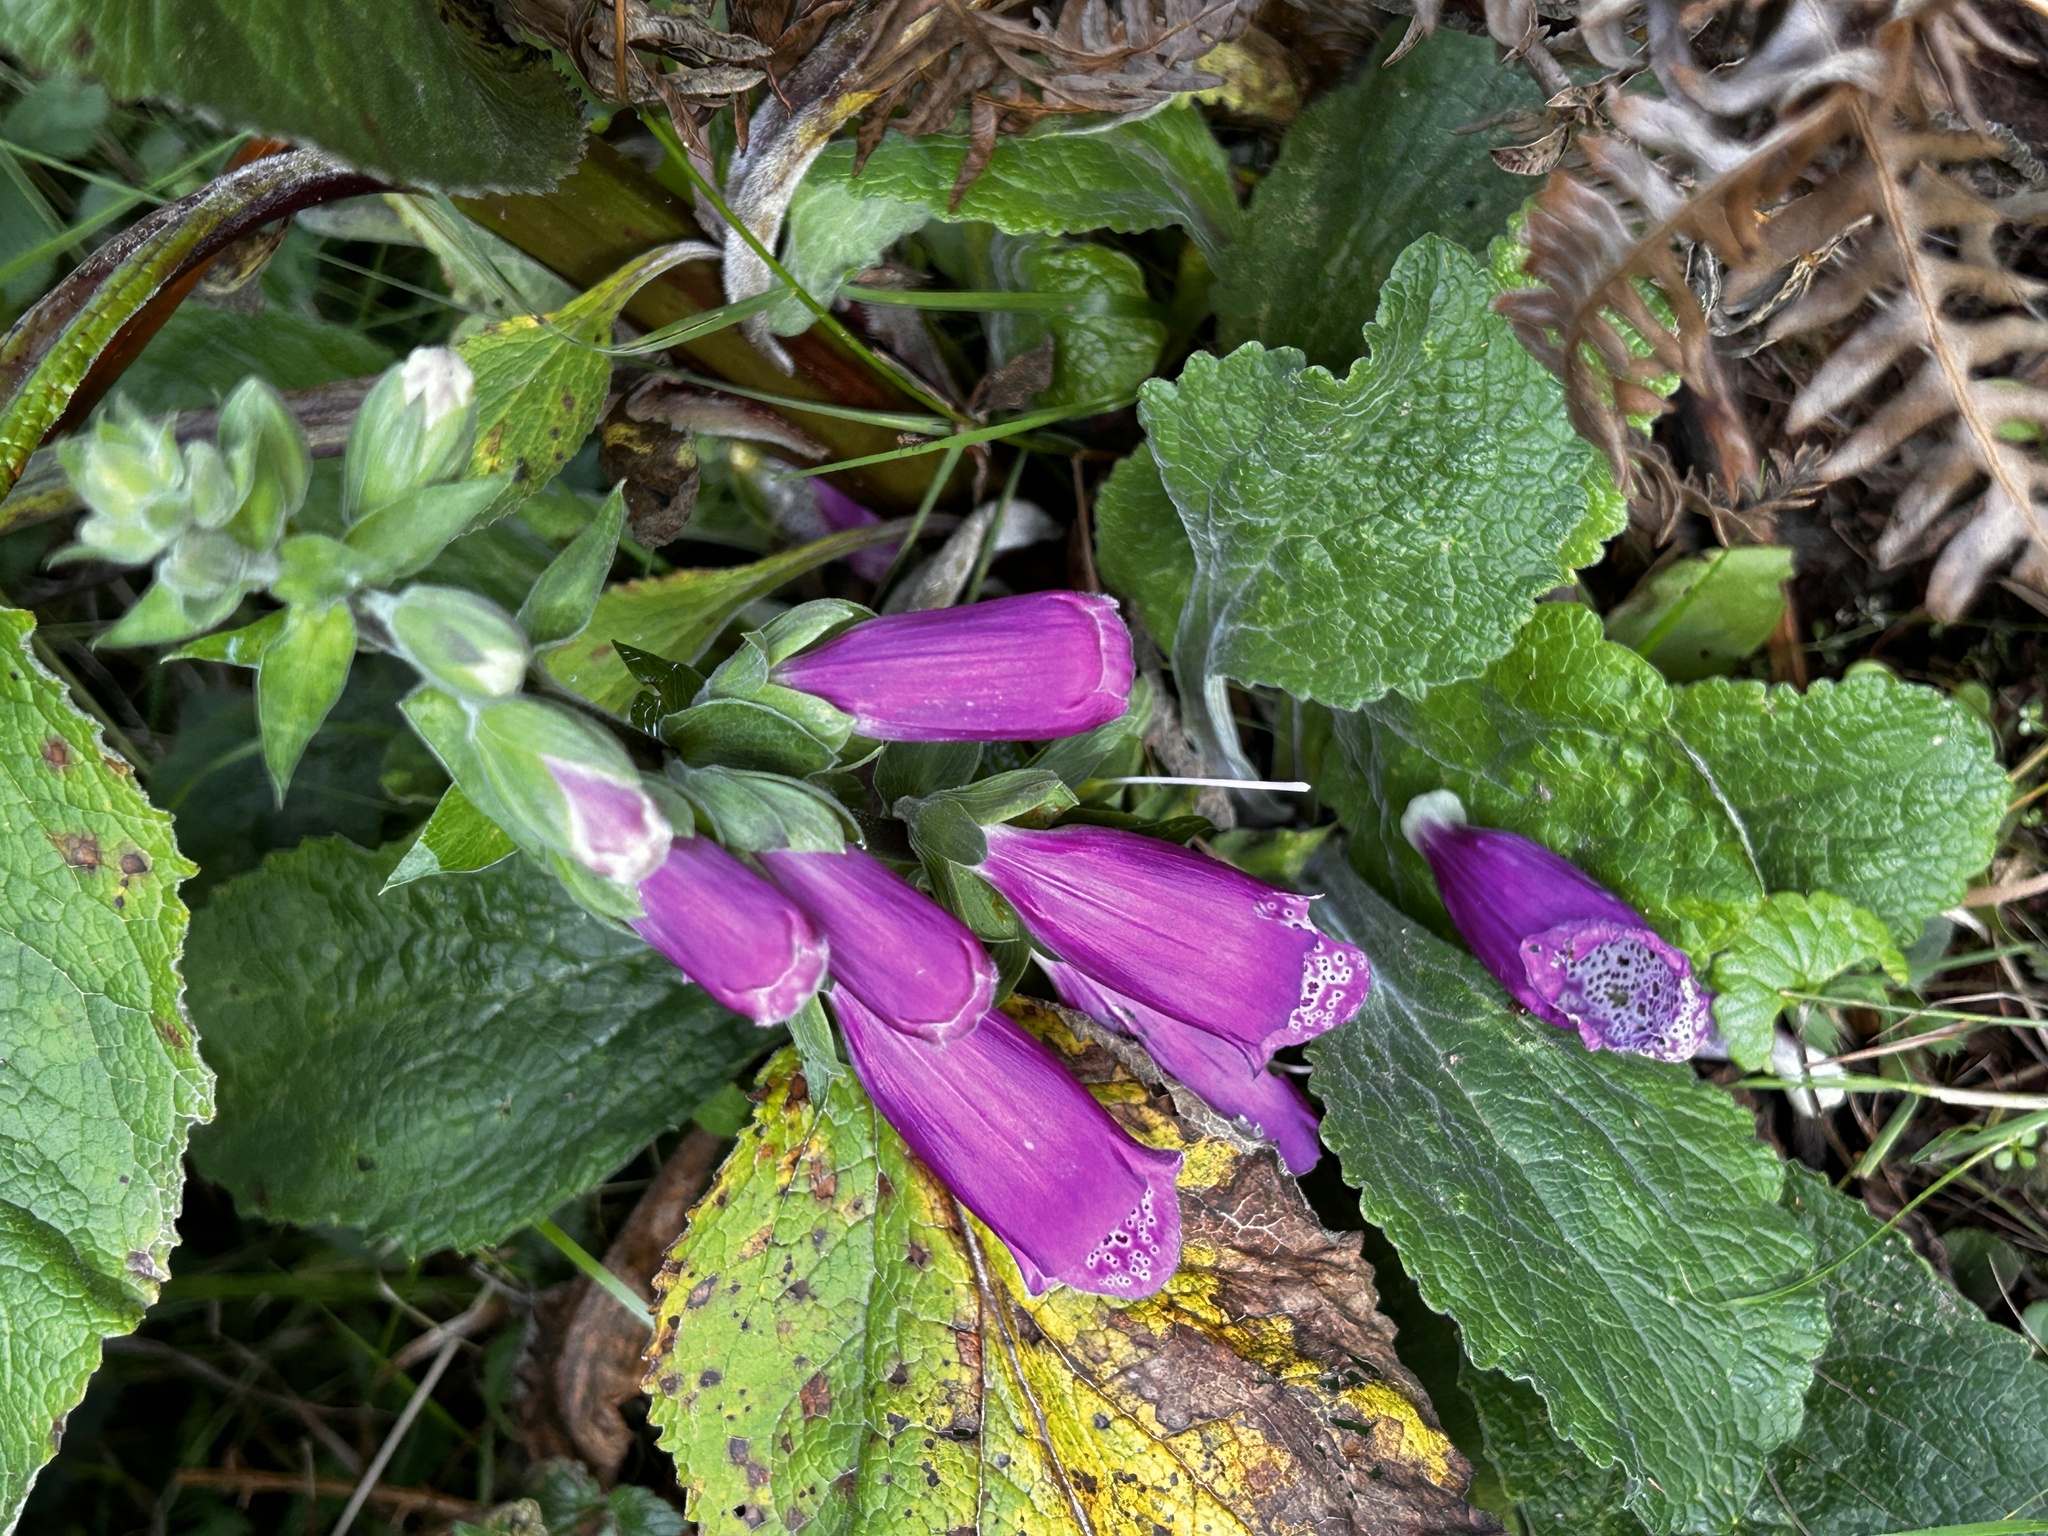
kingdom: Plantae
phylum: Tracheophyta
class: Magnoliopsida
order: Lamiales
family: Plantaginaceae
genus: Digitalis
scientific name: Digitalis purpurea
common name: Foxglove
